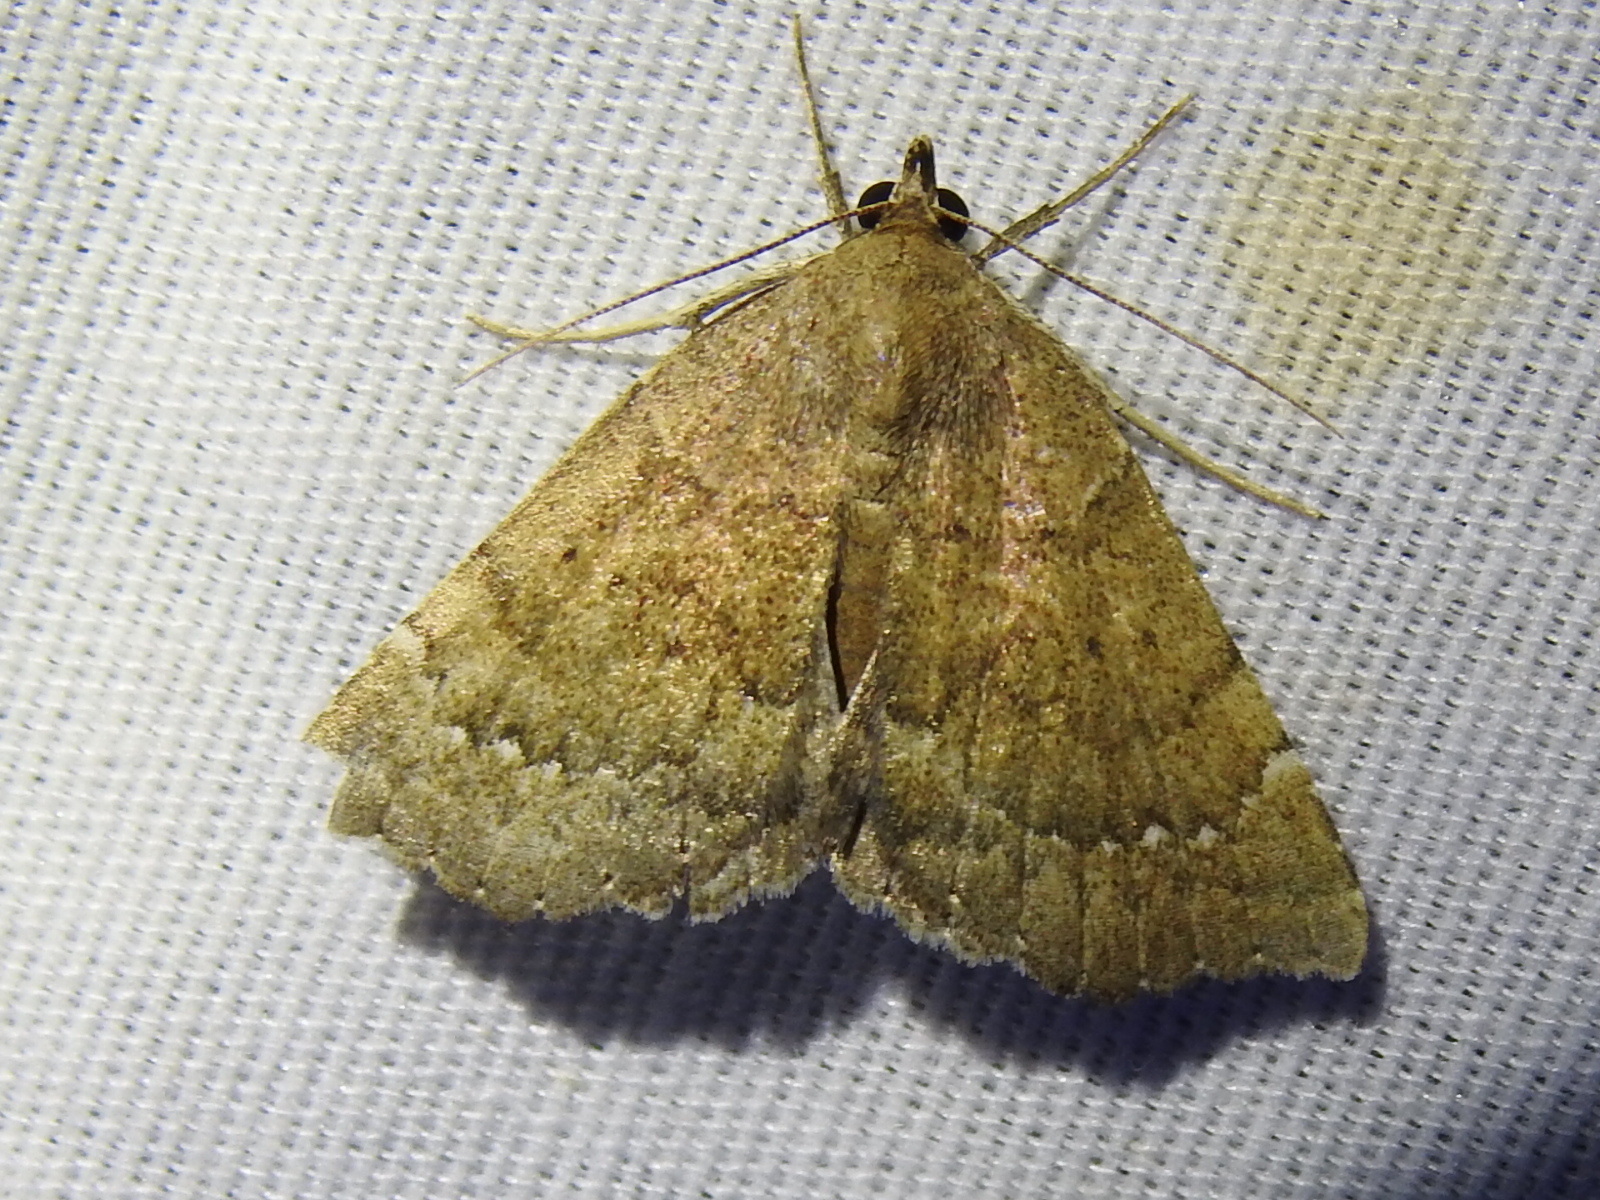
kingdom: Animalia
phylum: Arthropoda
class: Insecta
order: Lepidoptera
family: Erebidae
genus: Focillidia
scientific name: Focillidia texana
